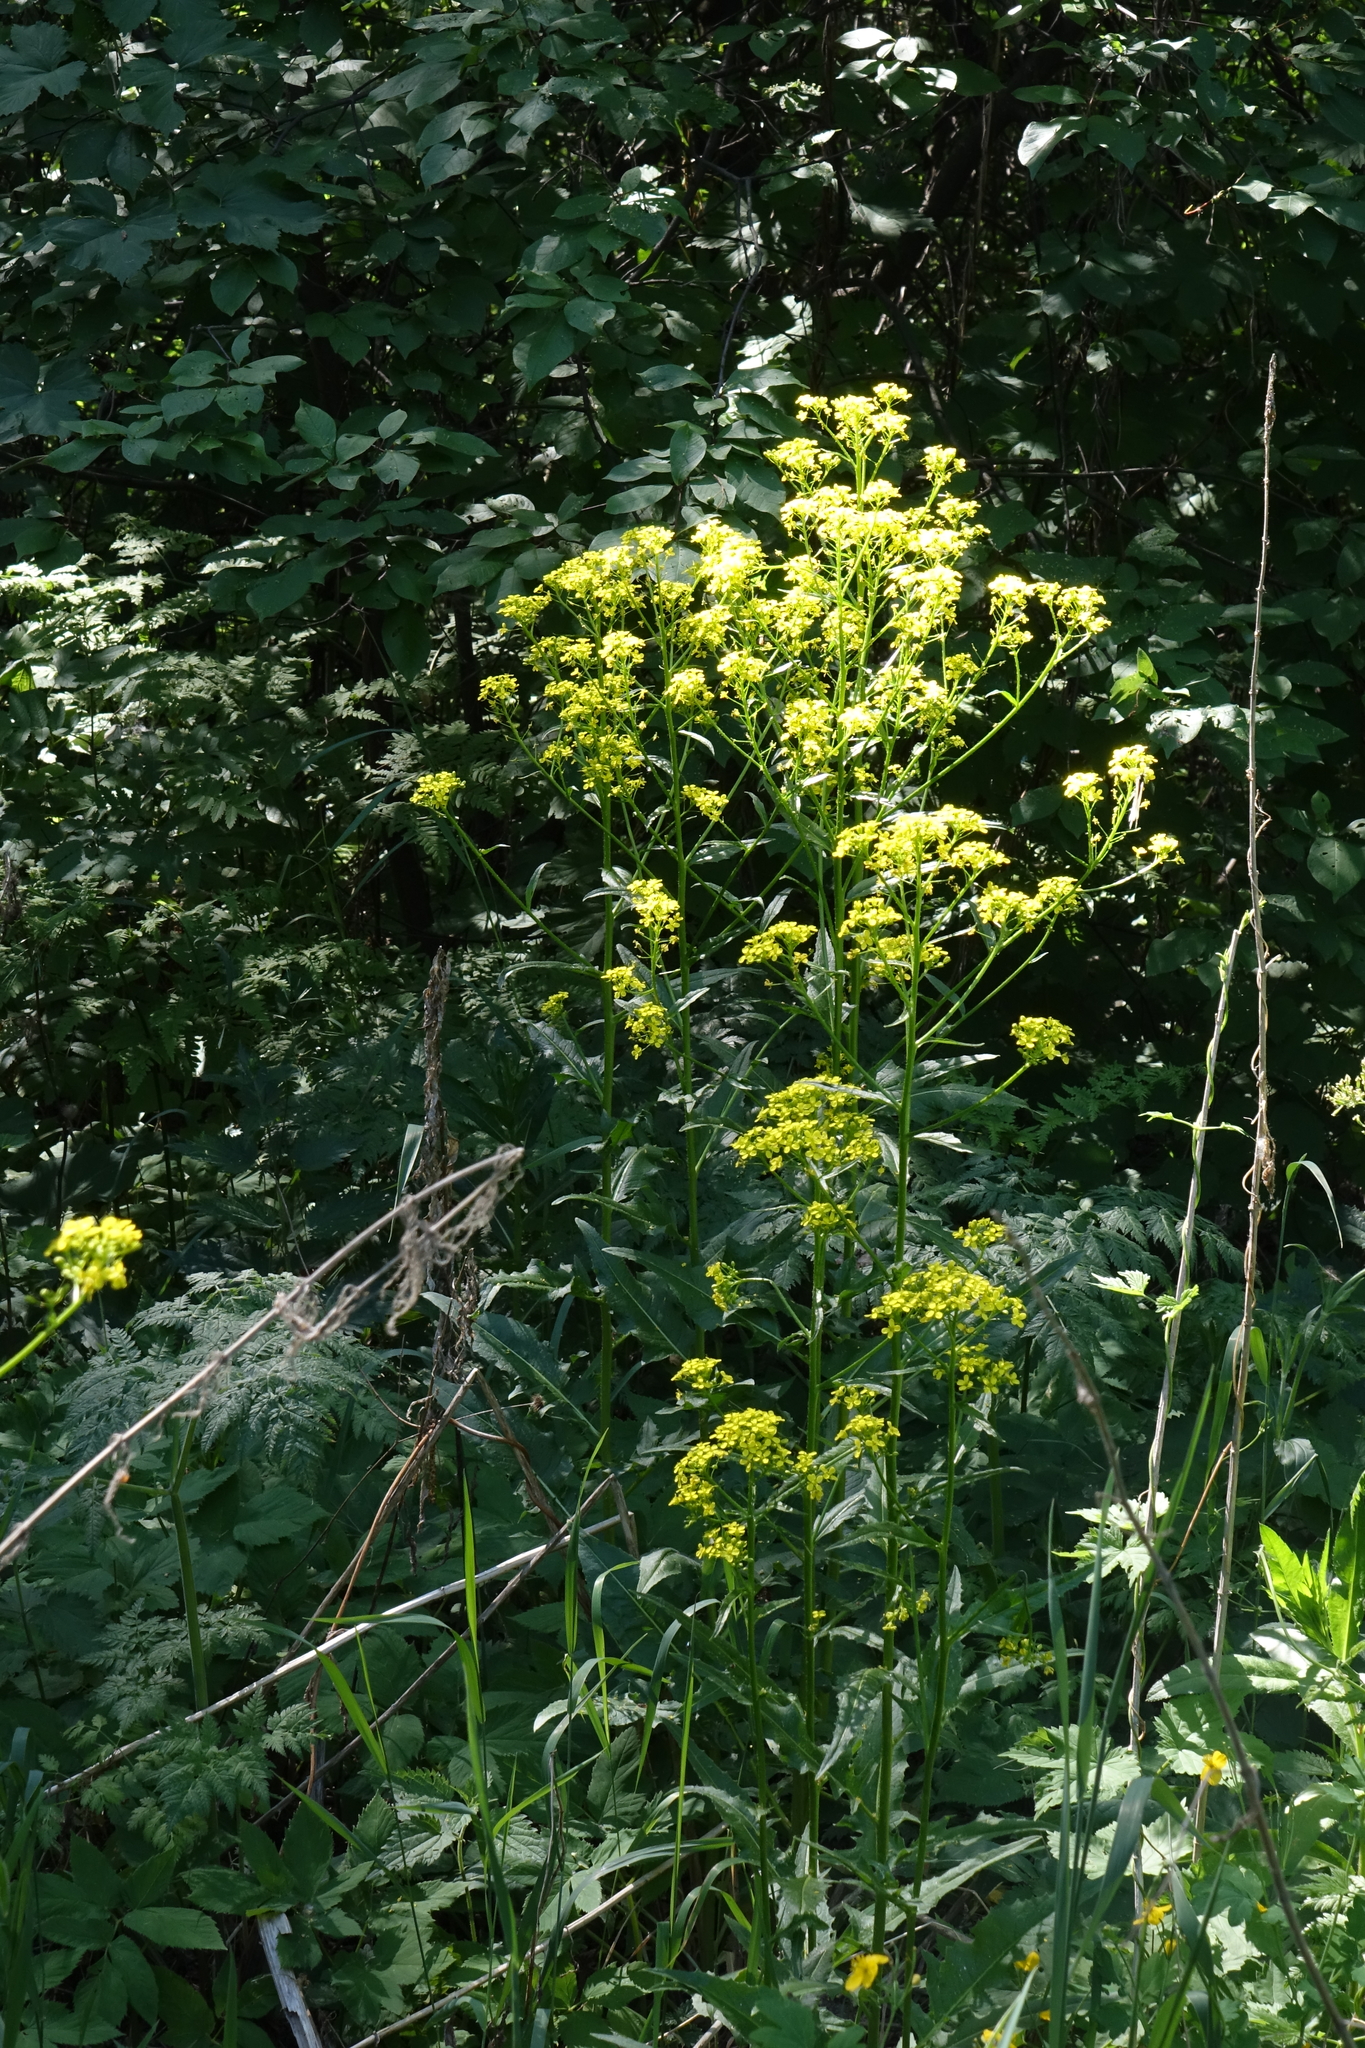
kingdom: Plantae
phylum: Tracheophyta
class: Magnoliopsida
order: Brassicales
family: Brassicaceae
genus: Bunias
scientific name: Bunias orientalis
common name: Warty-cabbage
